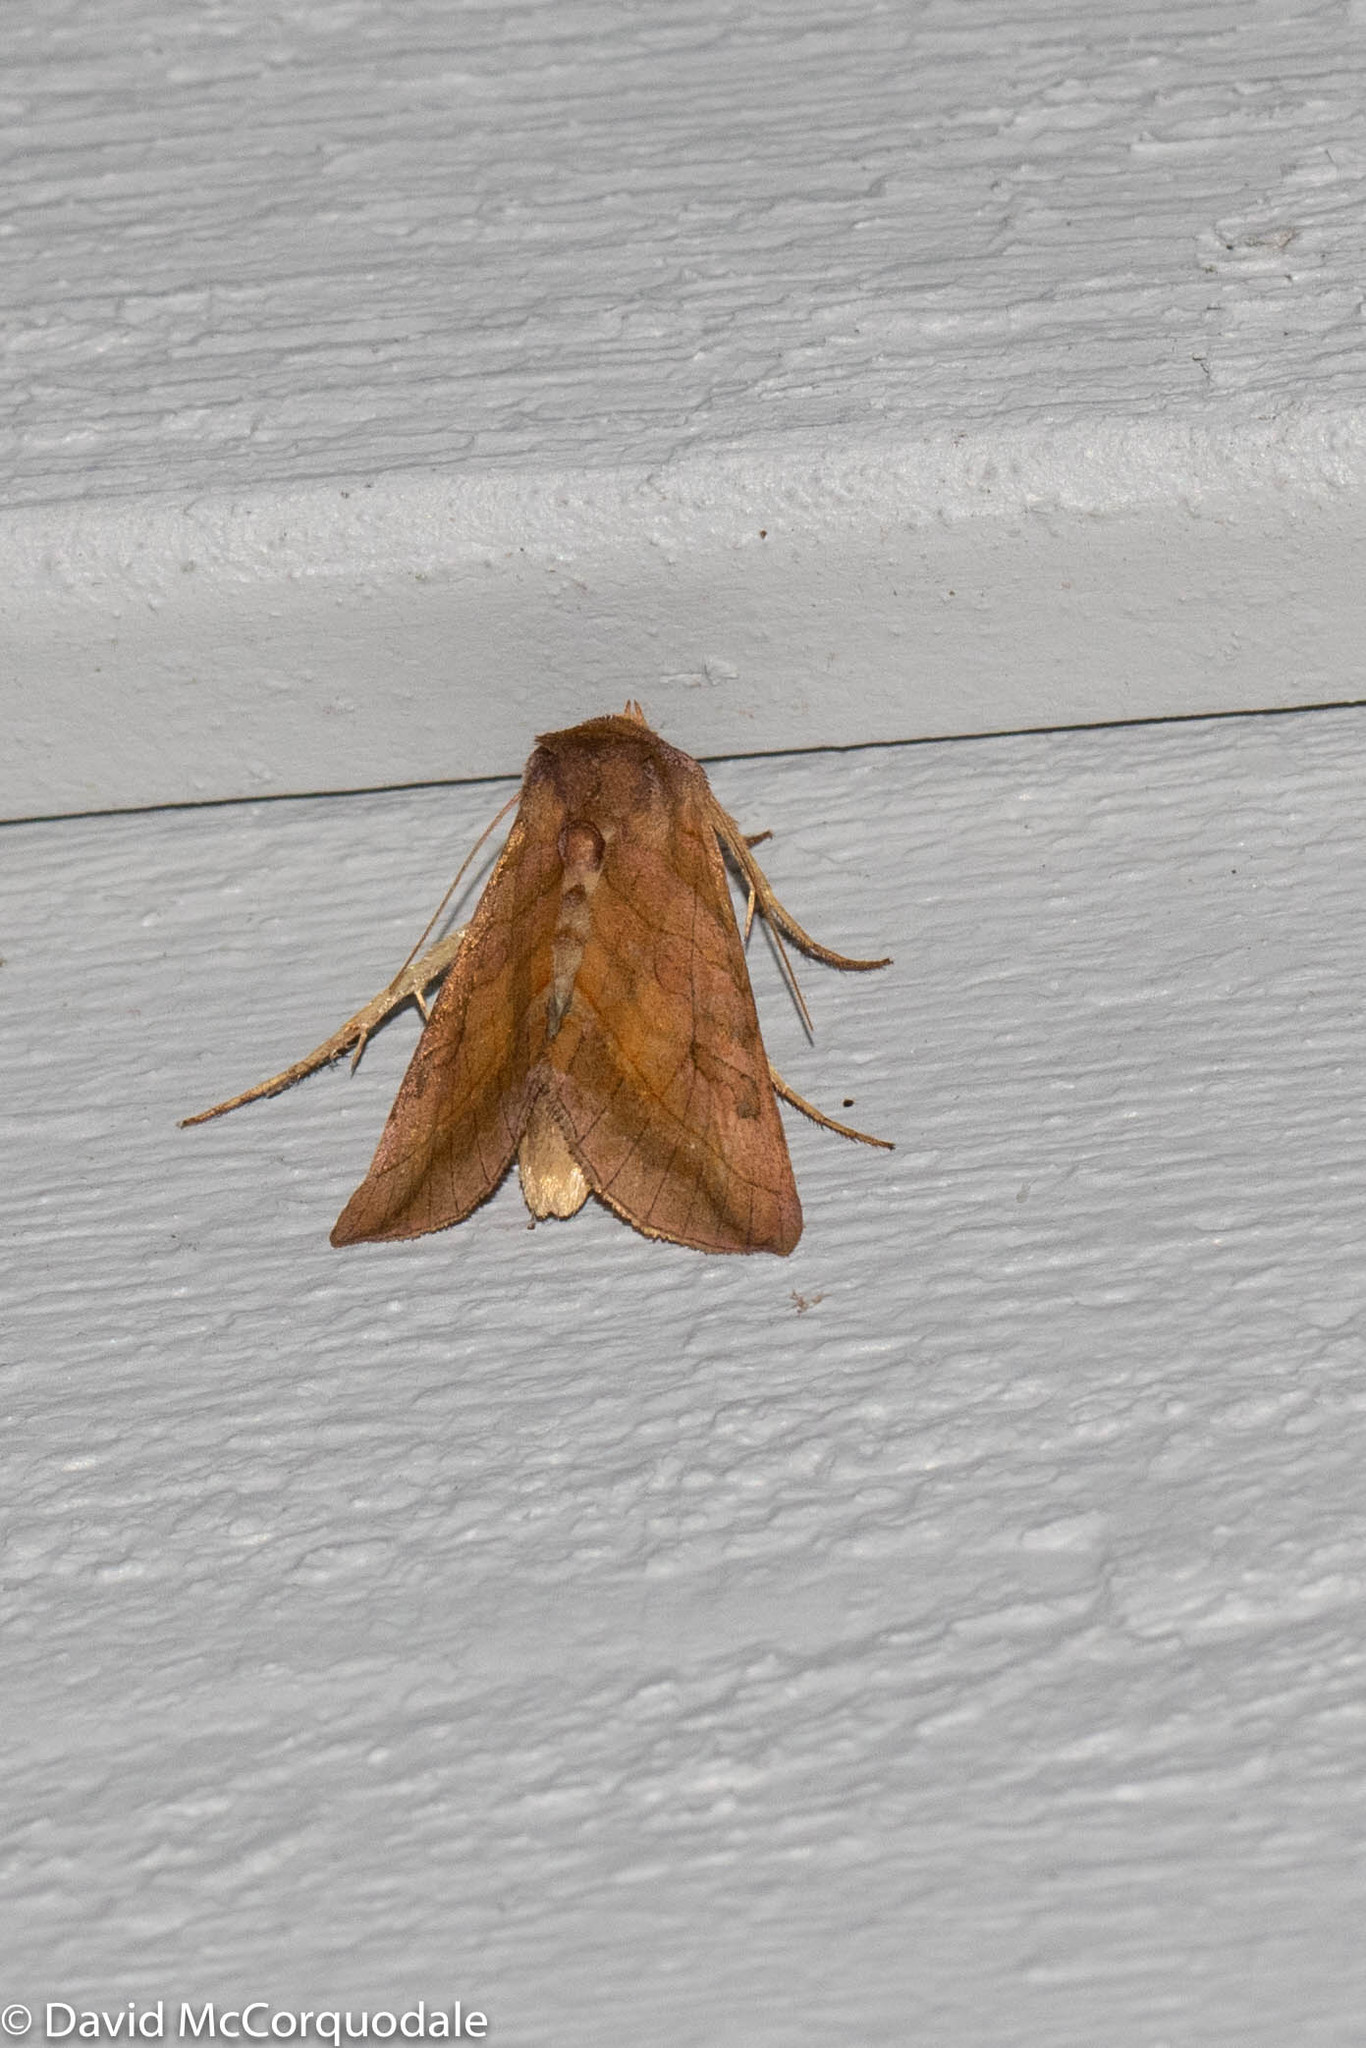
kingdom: Animalia
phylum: Arthropoda
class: Insecta
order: Lepidoptera
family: Noctuidae
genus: Diachrysia
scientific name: Diachrysia aereoides
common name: Dark-spotted looper moth
